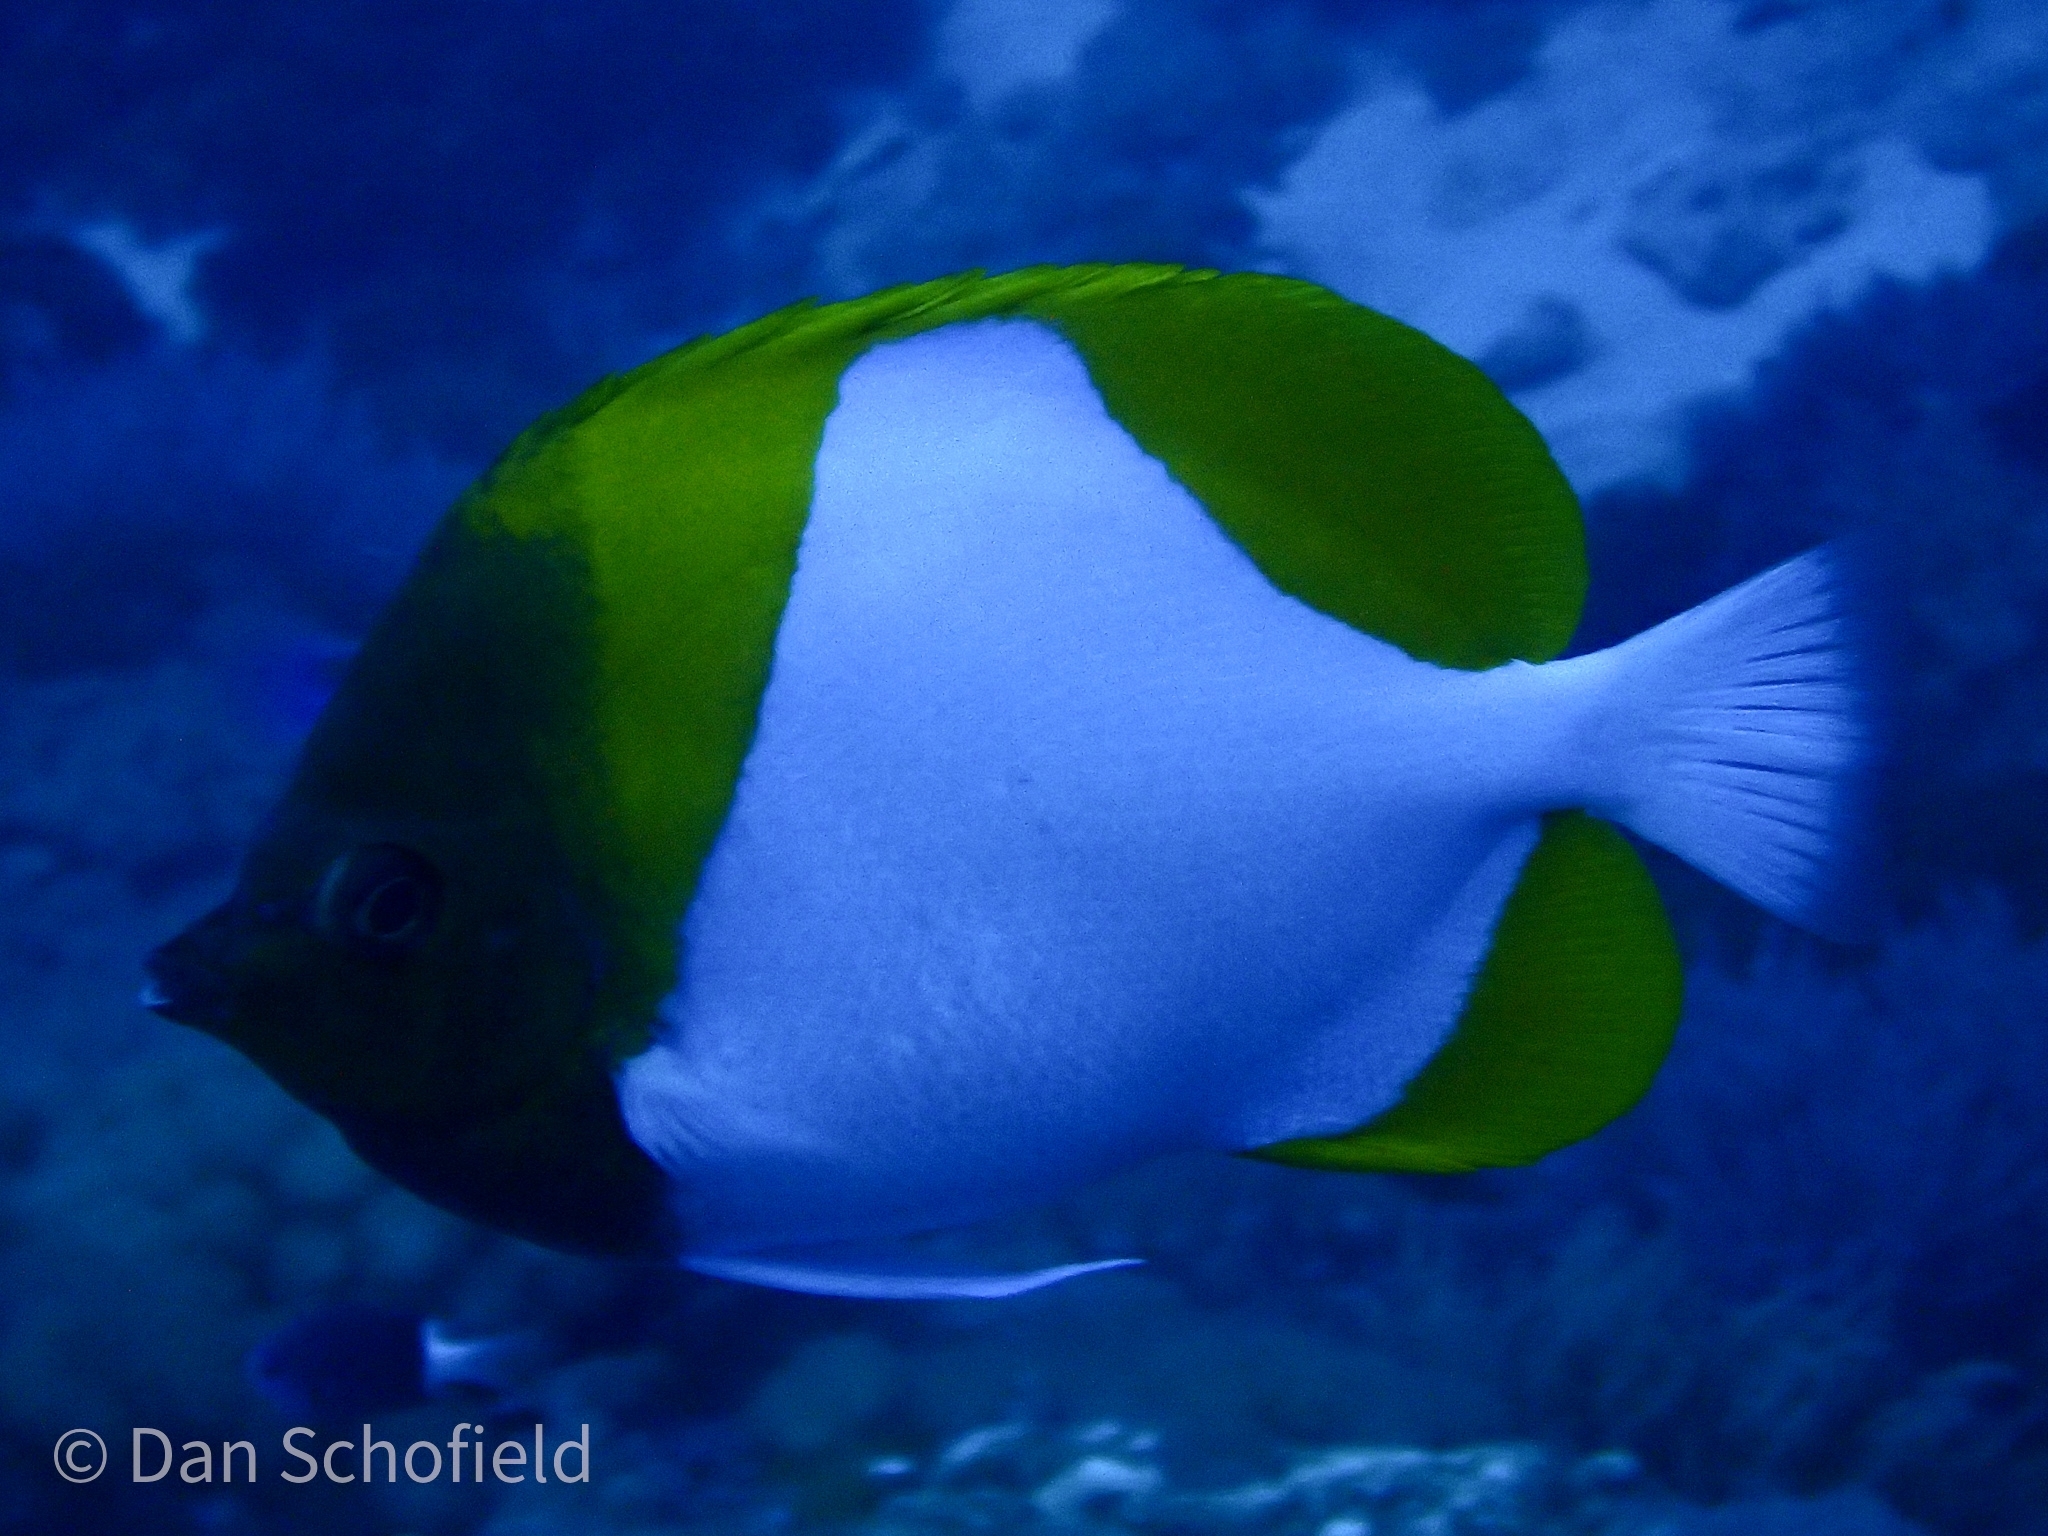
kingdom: Animalia
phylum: Chordata
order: Perciformes
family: Chaetodontidae
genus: Hemitaurichthys
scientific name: Hemitaurichthys polylepis
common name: Brushytoothed butterflyfish
